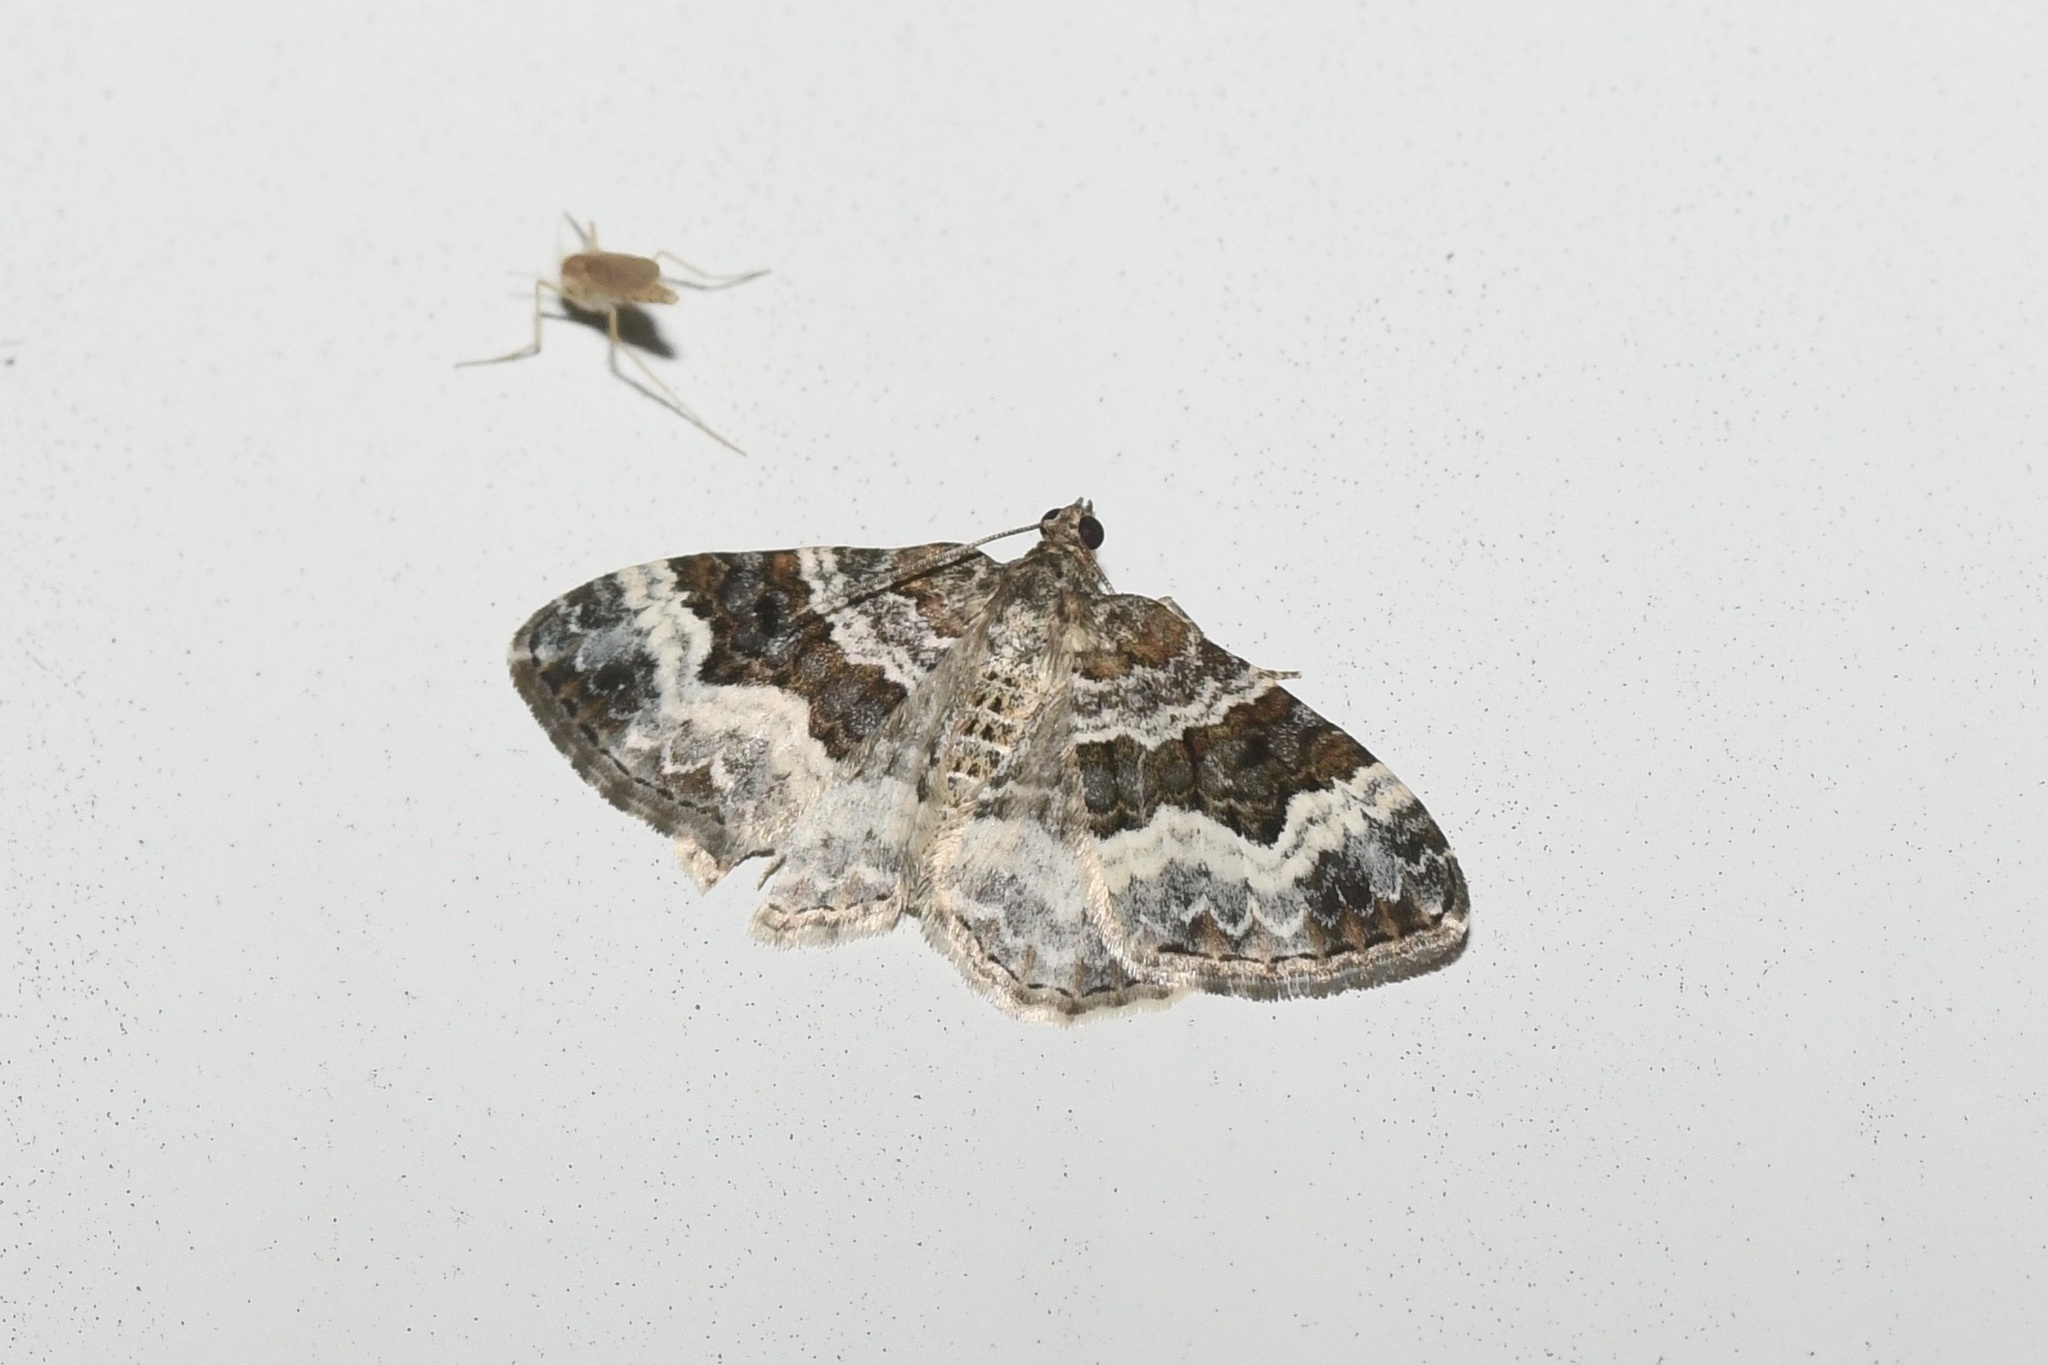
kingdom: Animalia
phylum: Arthropoda
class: Insecta
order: Lepidoptera
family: Geometridae
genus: Epirrhoe
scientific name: Epirrhoe alternata
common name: Common carpet
